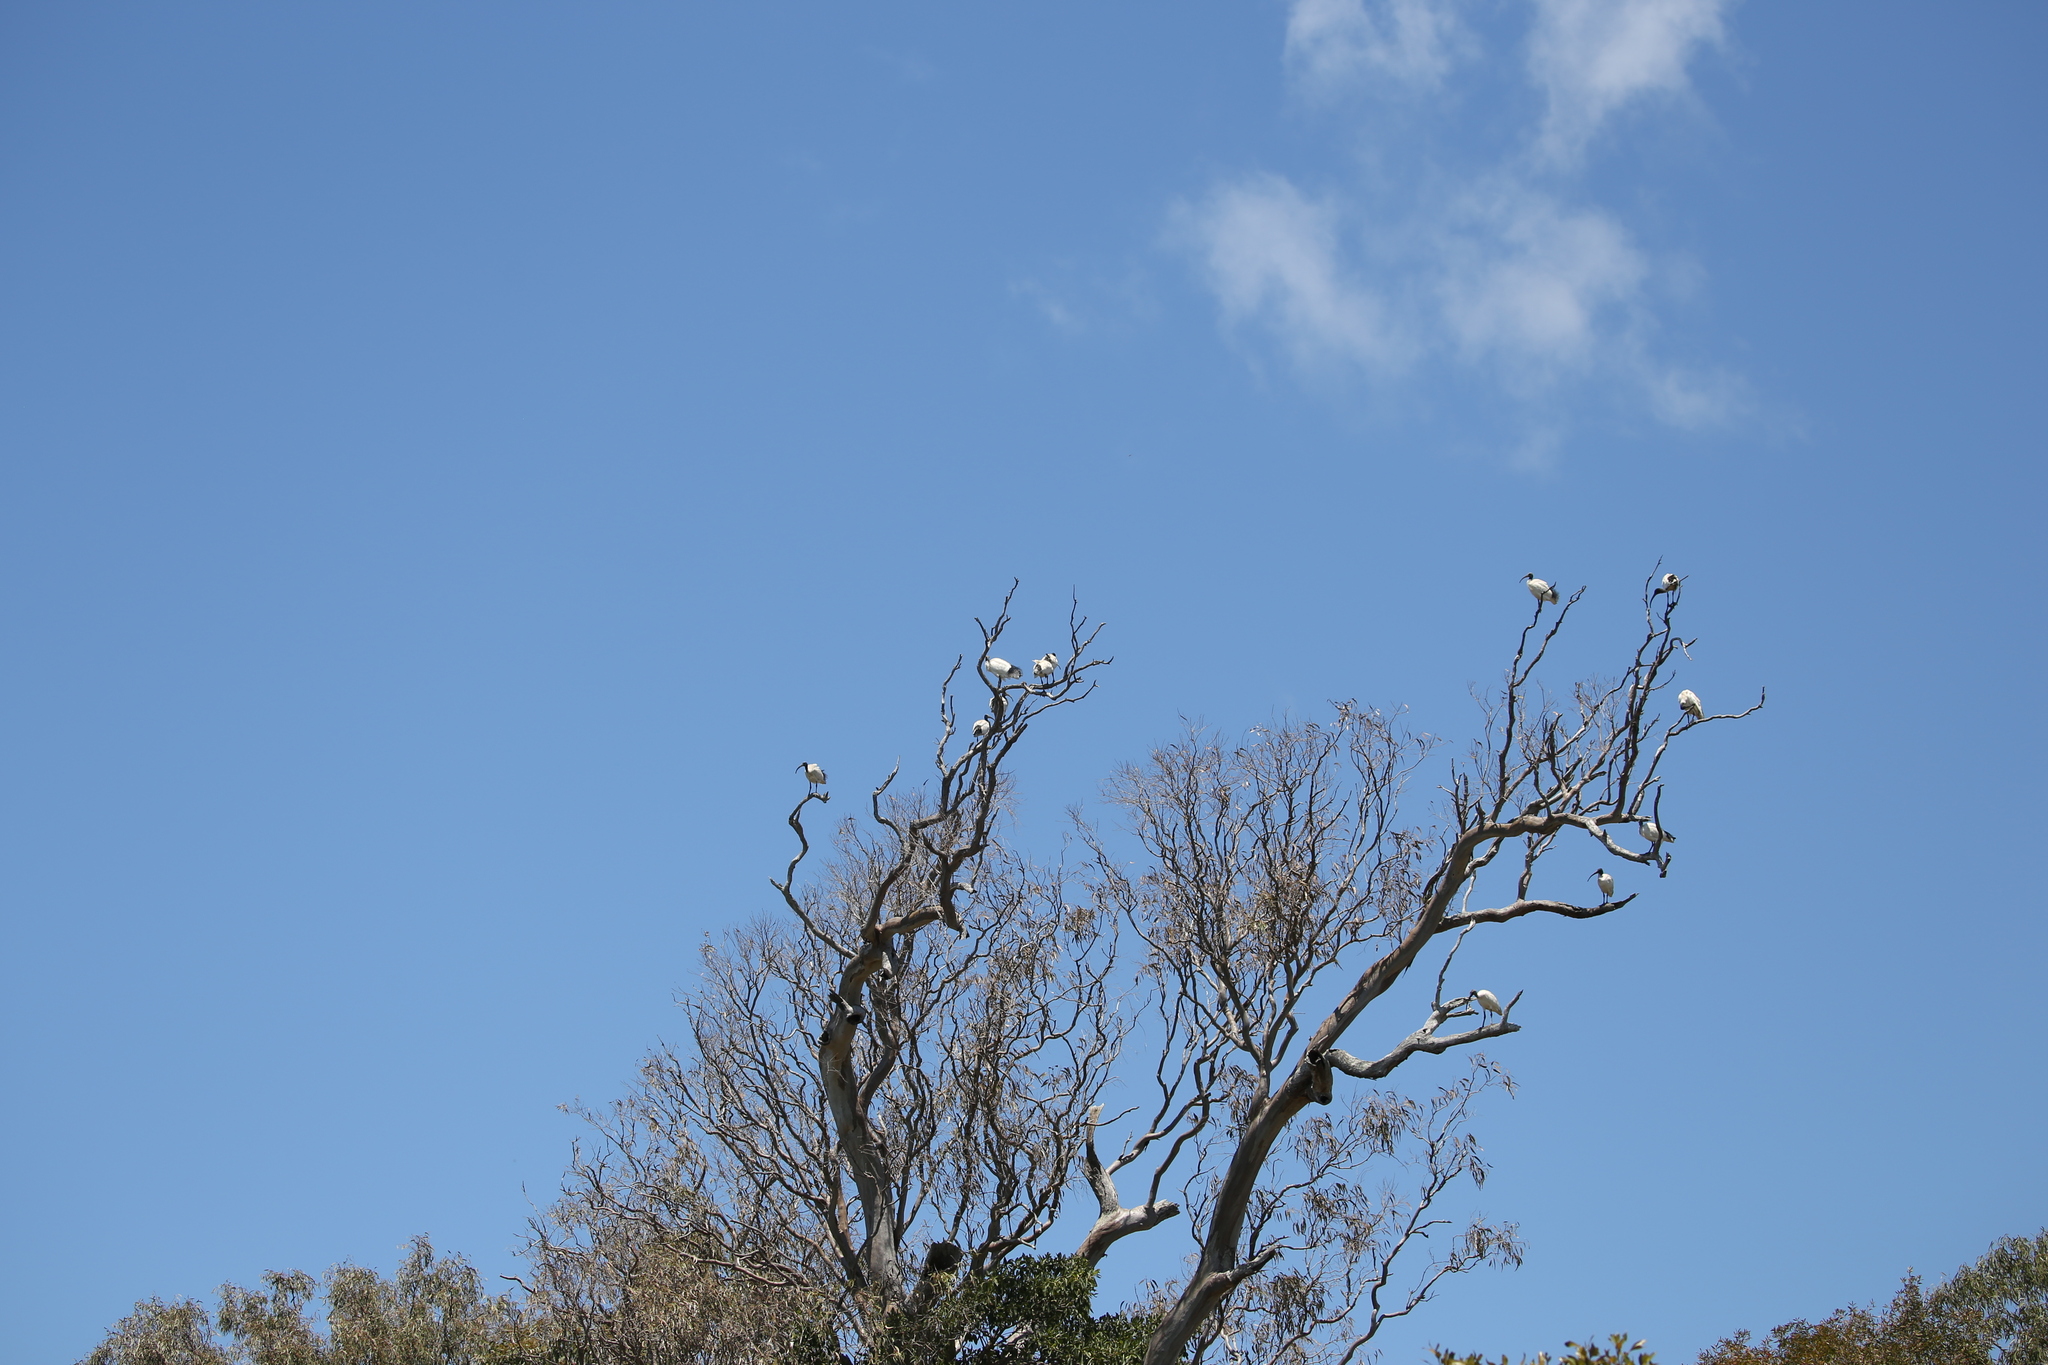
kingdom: Animalia
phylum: Chordata
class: Aves
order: Pelecaniformes
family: Threskiornithidae
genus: Threskiornis
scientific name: Threskiornis molucca
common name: Australian white ibis
